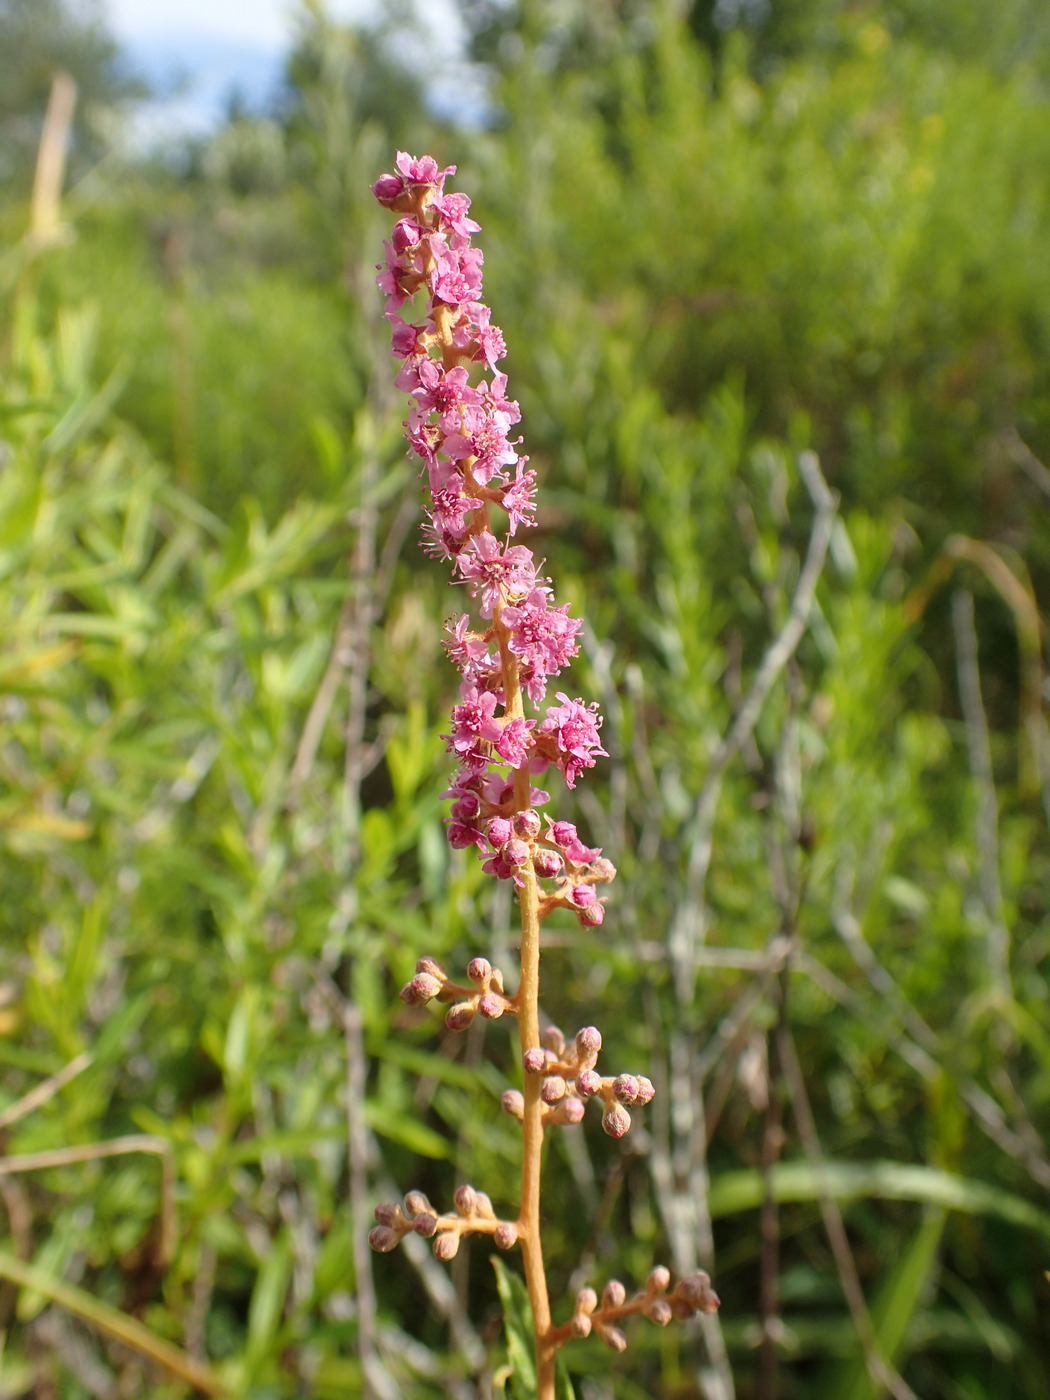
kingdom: Plantae
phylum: Tracheophyta
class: Magnoliopsida
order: Rosales
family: Rosaceae
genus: Spiraea
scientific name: Spiraea tomentosa
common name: Hardhack
